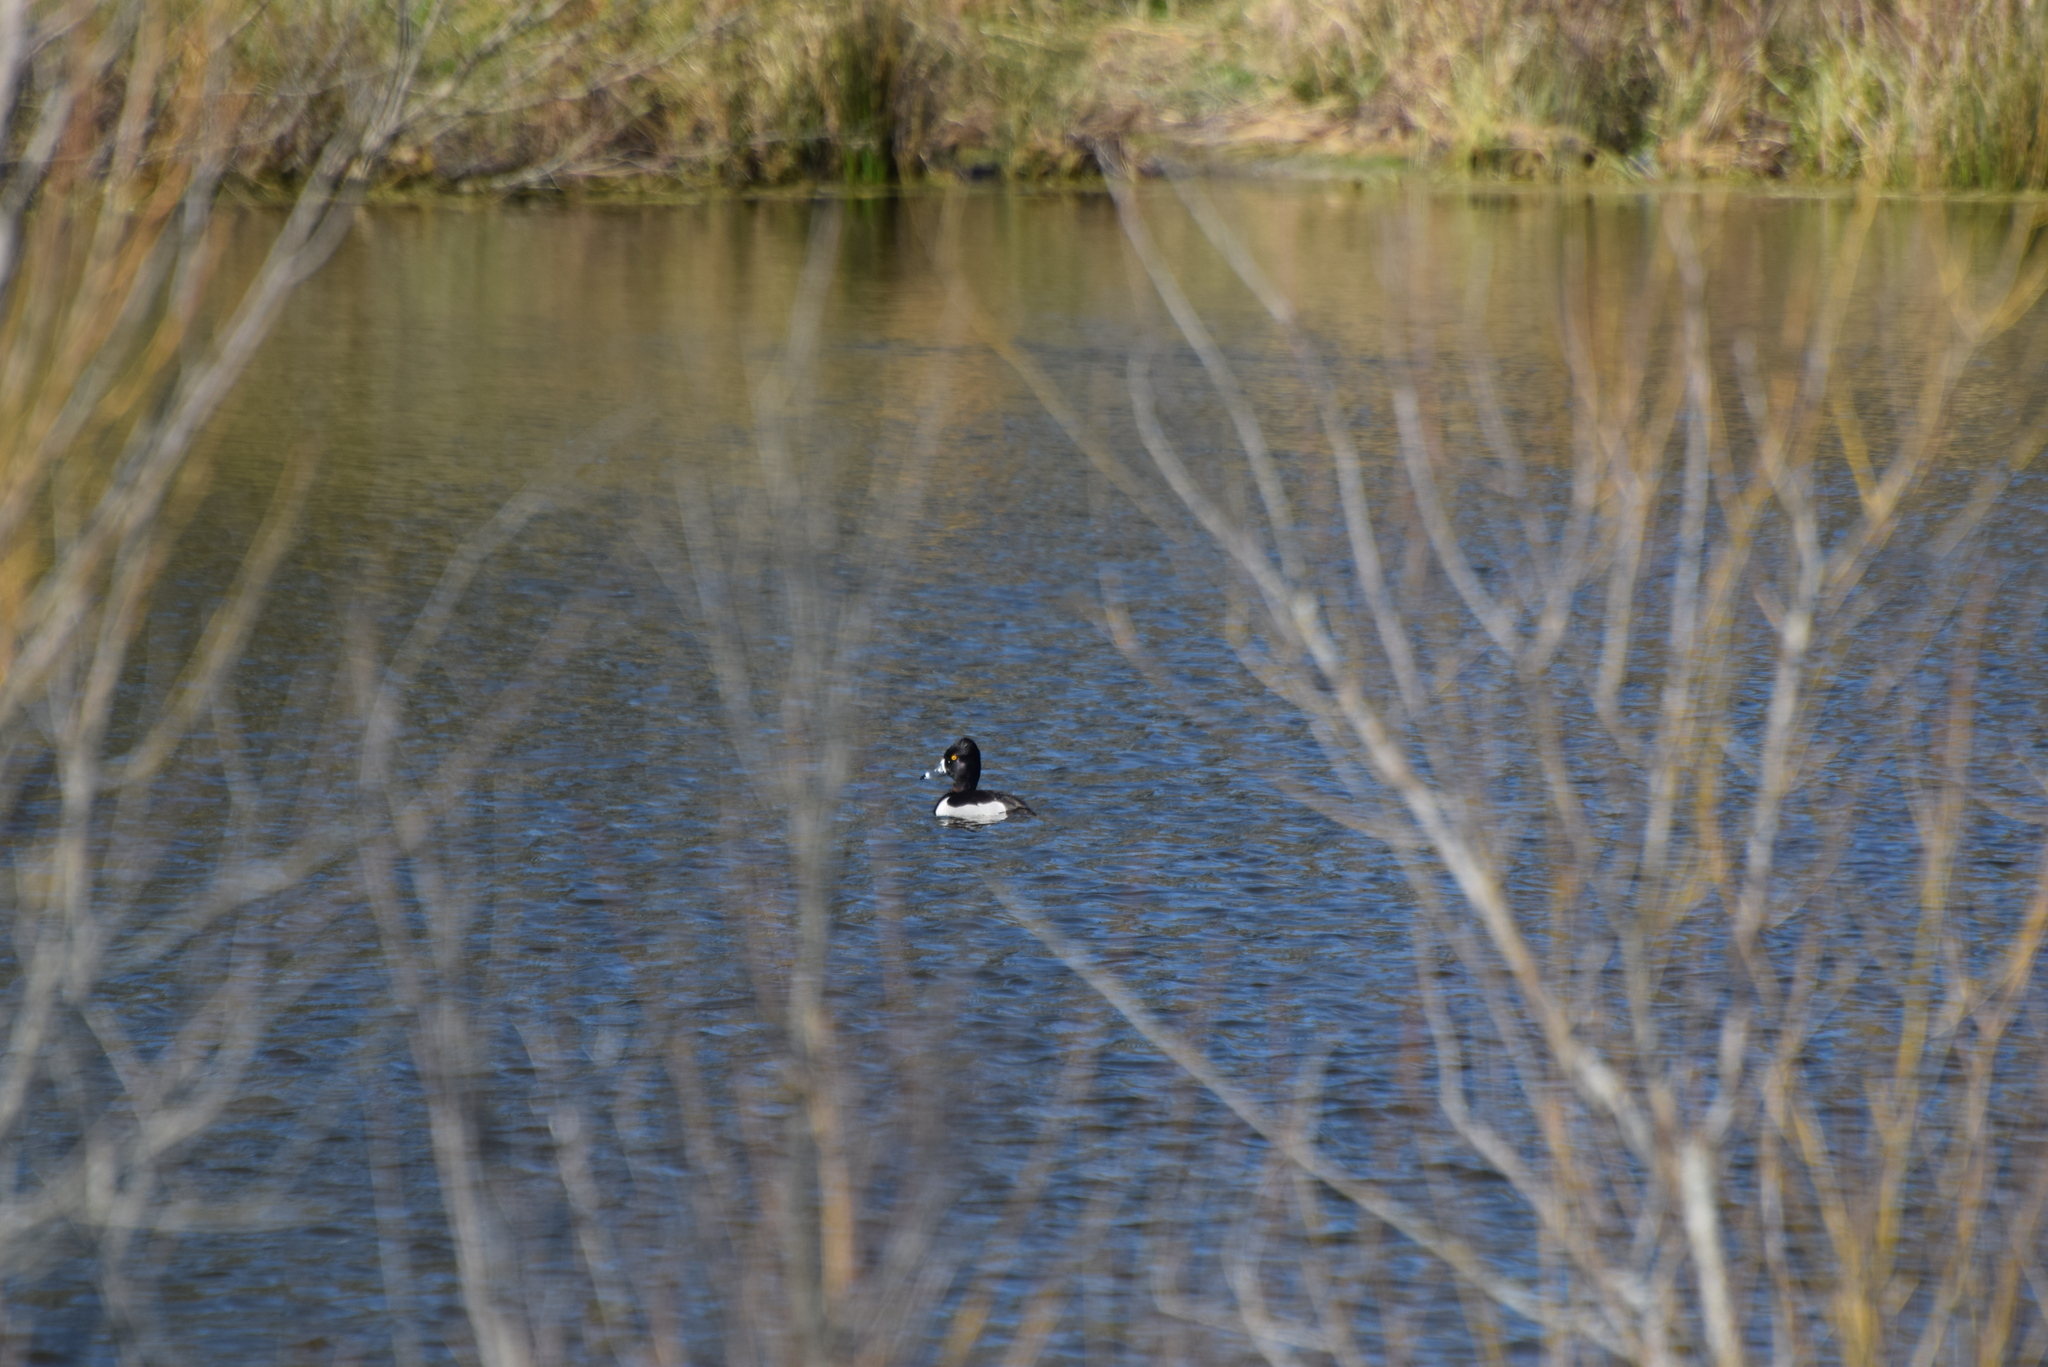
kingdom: Animalia
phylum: Chordata
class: Aves
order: Anseriformes
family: Anatidae
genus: Aythya
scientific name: Aythya collaris
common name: Ring-necked duck
